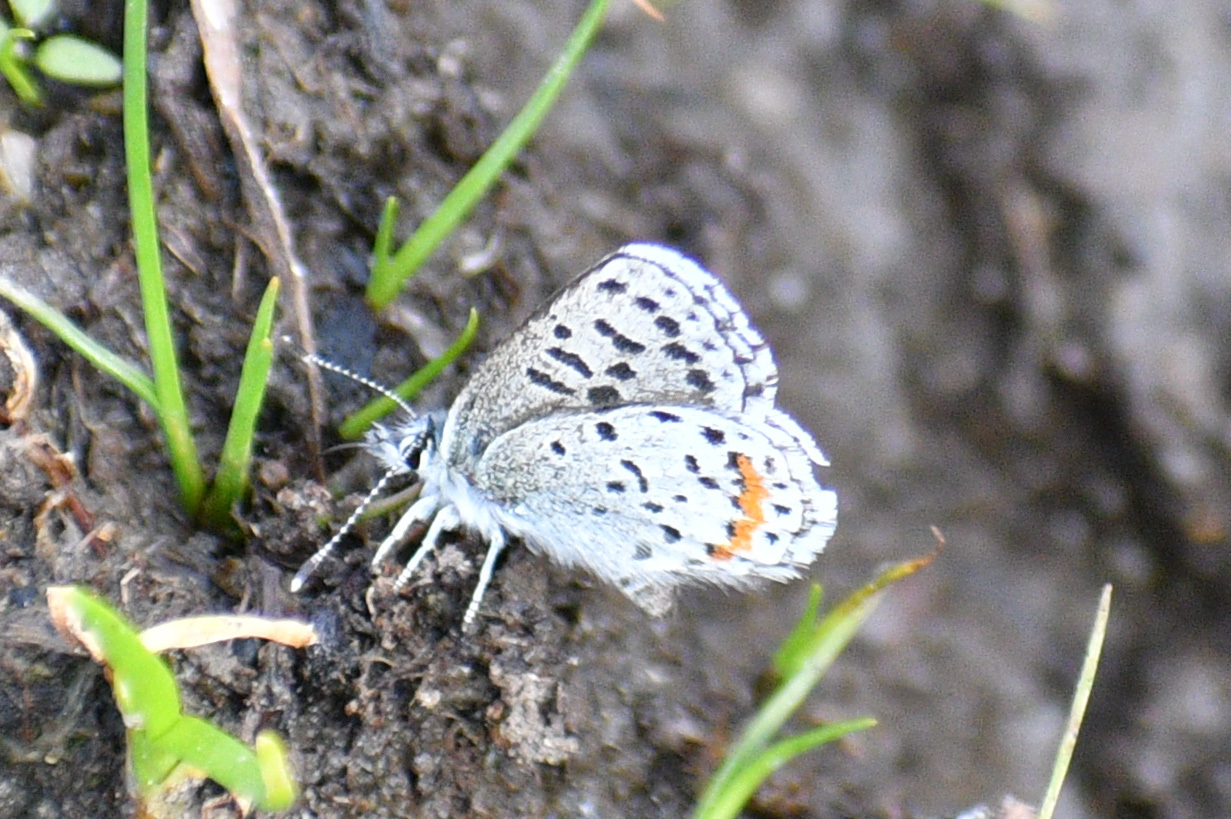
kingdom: Animalia
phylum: Arthropoda
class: Insecta
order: Lepidoptera
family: Lycaenidae
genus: Euphilotes
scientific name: Euphilotes
